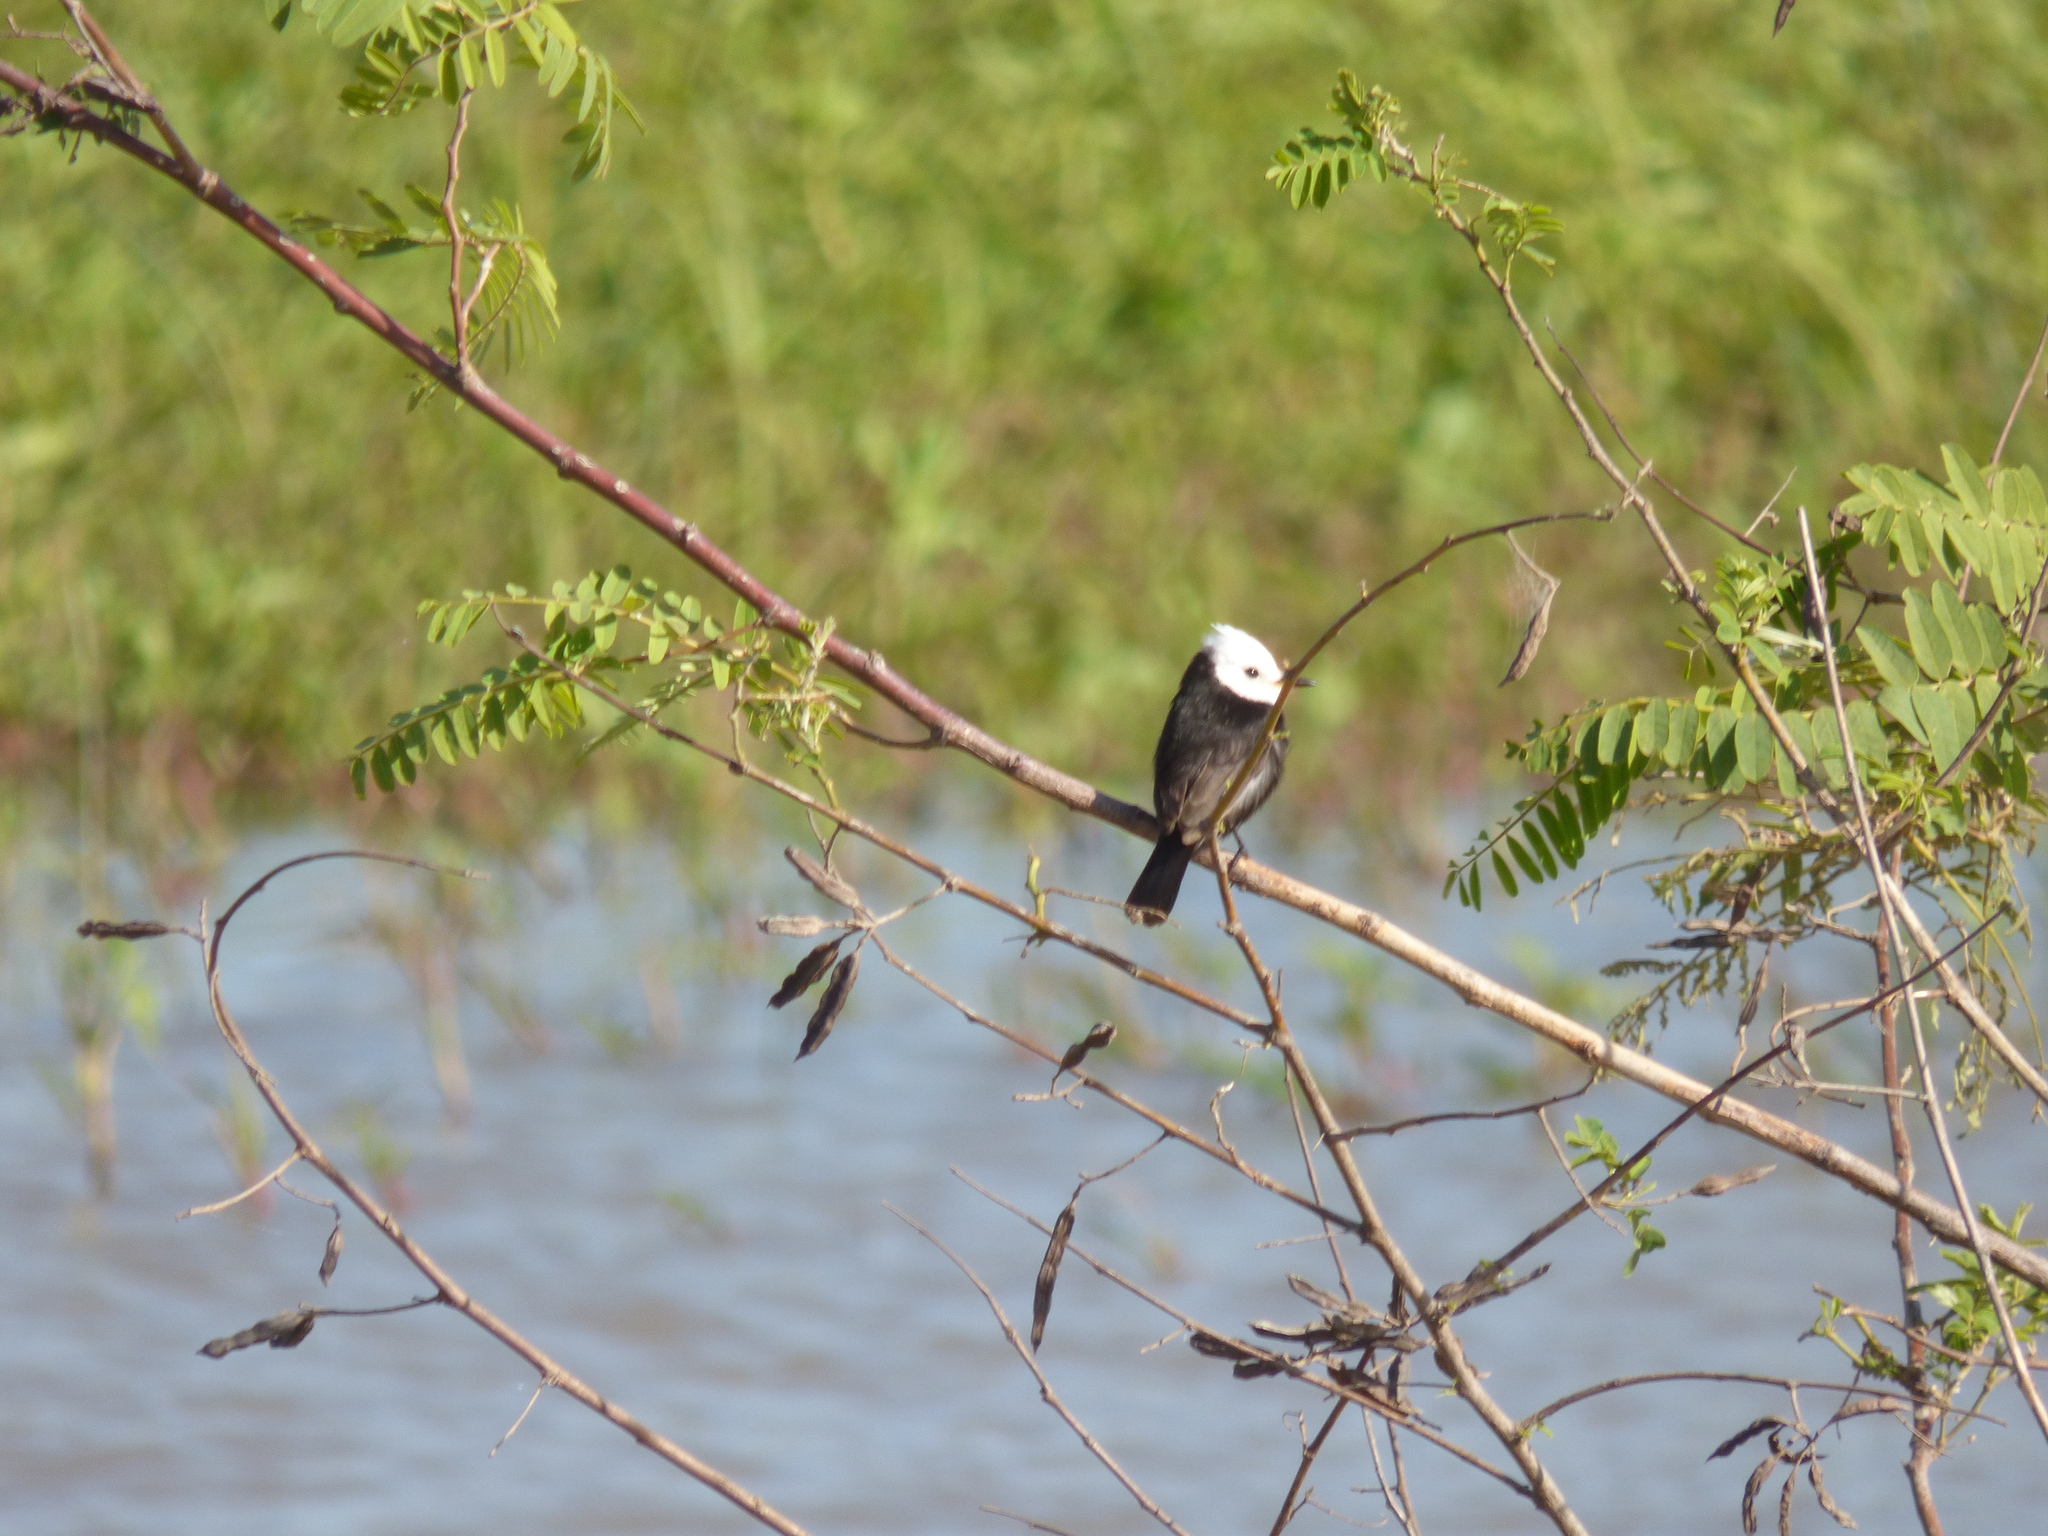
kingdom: Animalia
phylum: Chordata
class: Aves
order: Passeriformes
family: Tyrannidae
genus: Arundinicola
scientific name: Arundinicola leucocephala
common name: White-headed marsh tyrant
